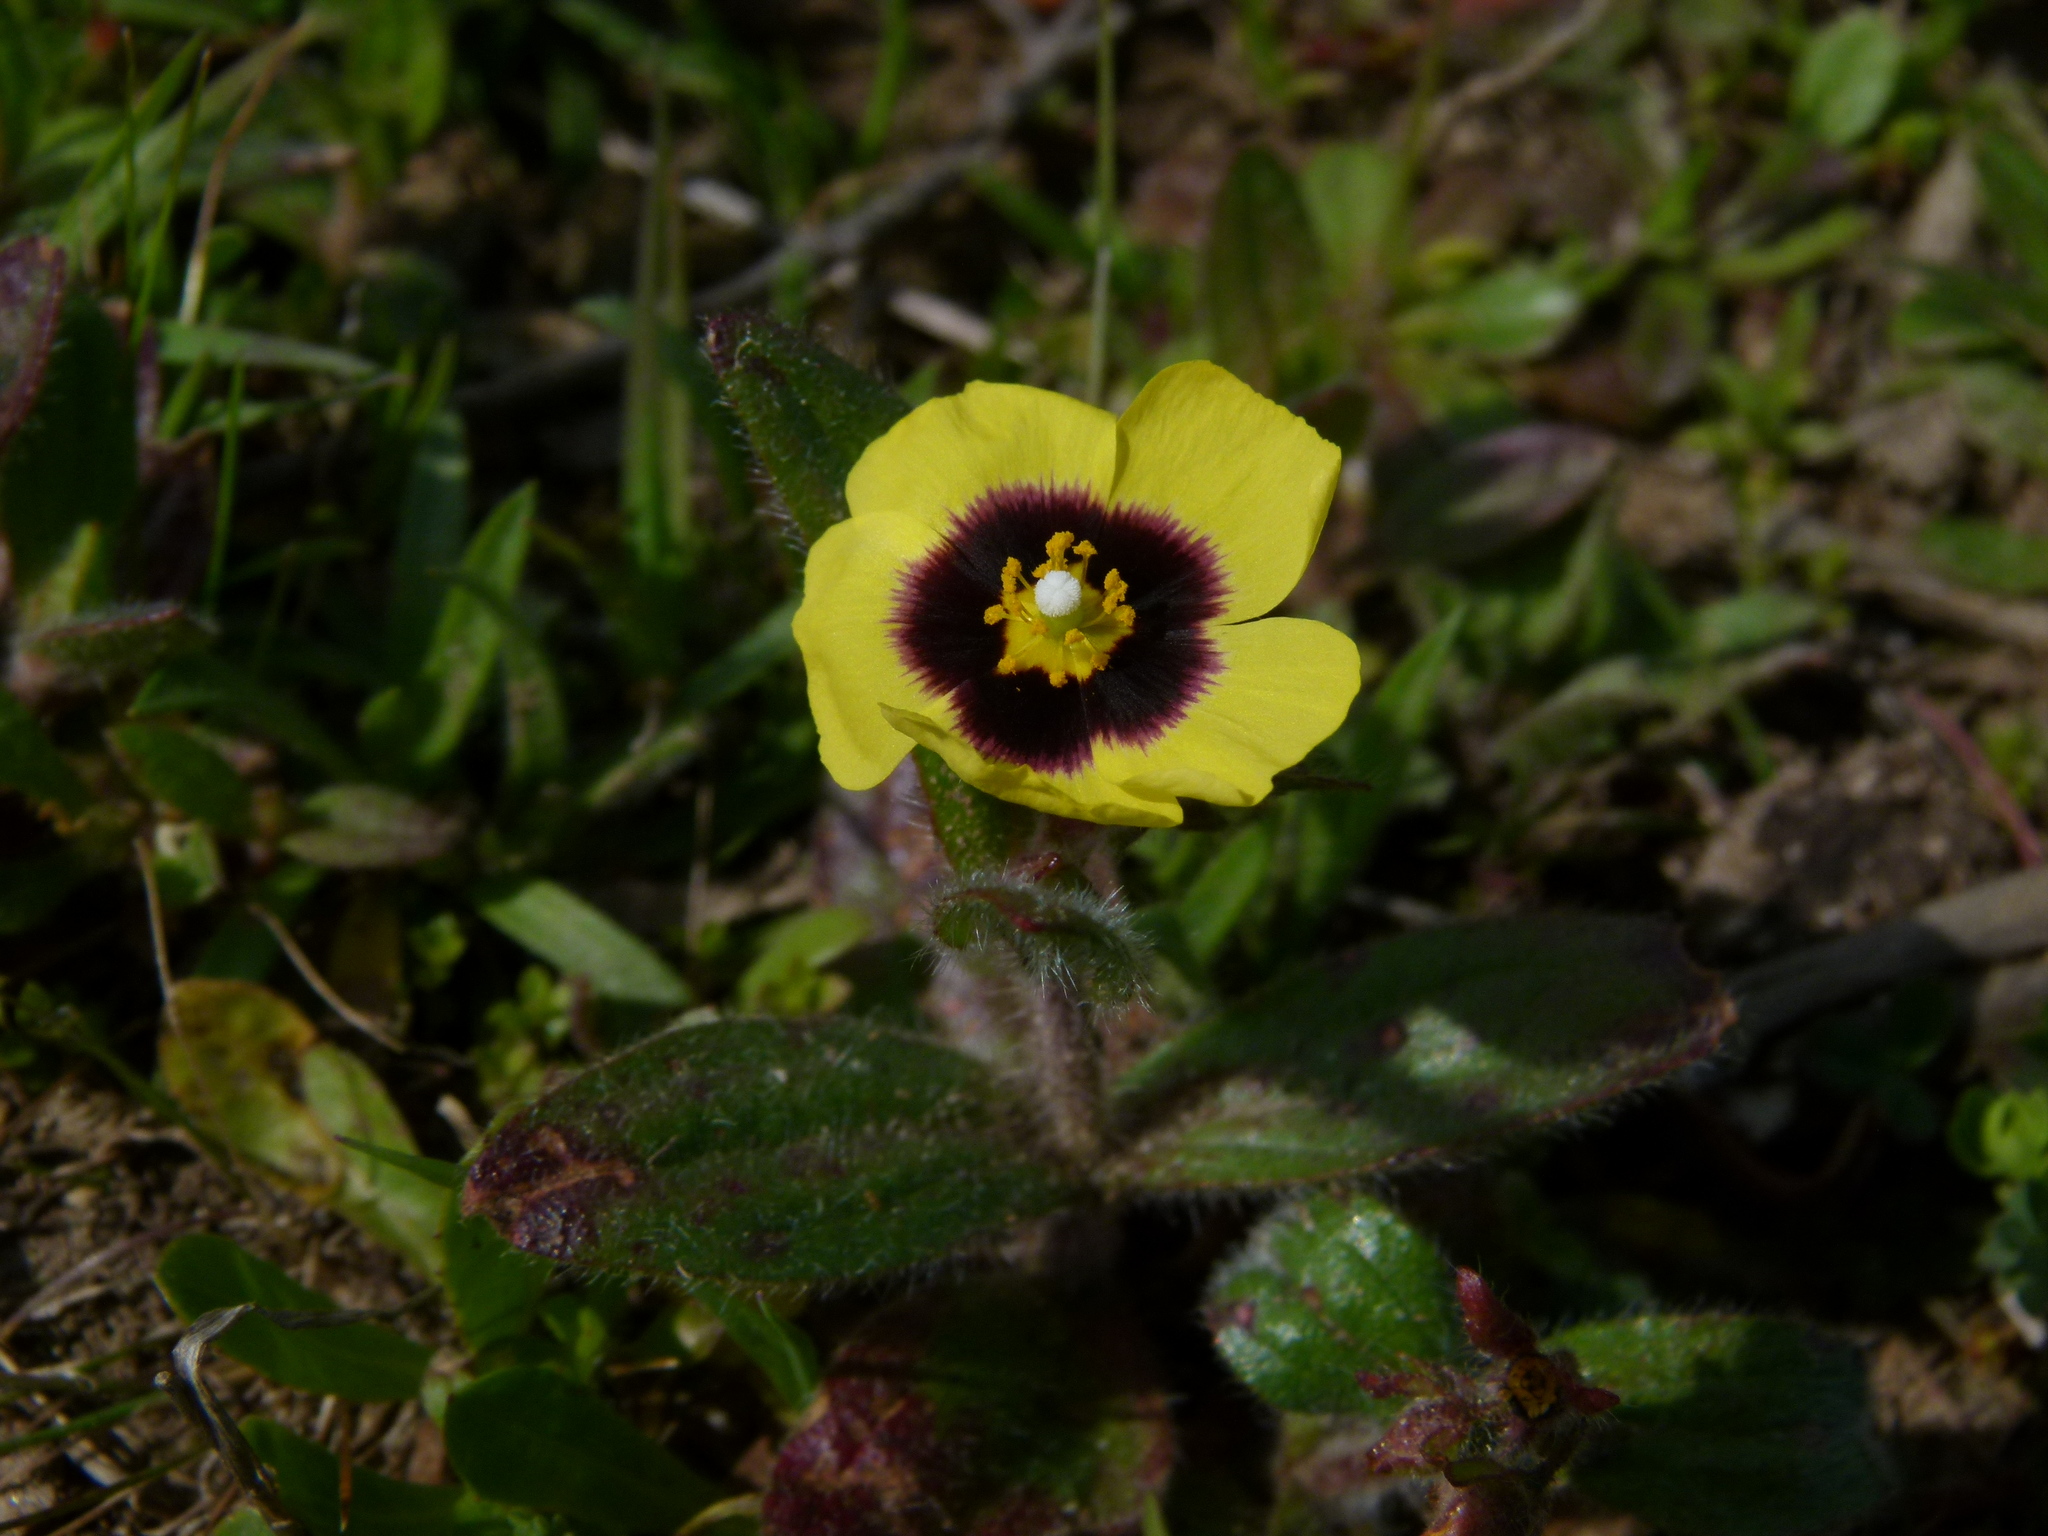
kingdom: Plantae
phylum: Tracheophyta
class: Magnoliopsida
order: Malvales
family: Cistaceae
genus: Tuberaria
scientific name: Tuberaria guttata
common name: Spotted rock-rose
